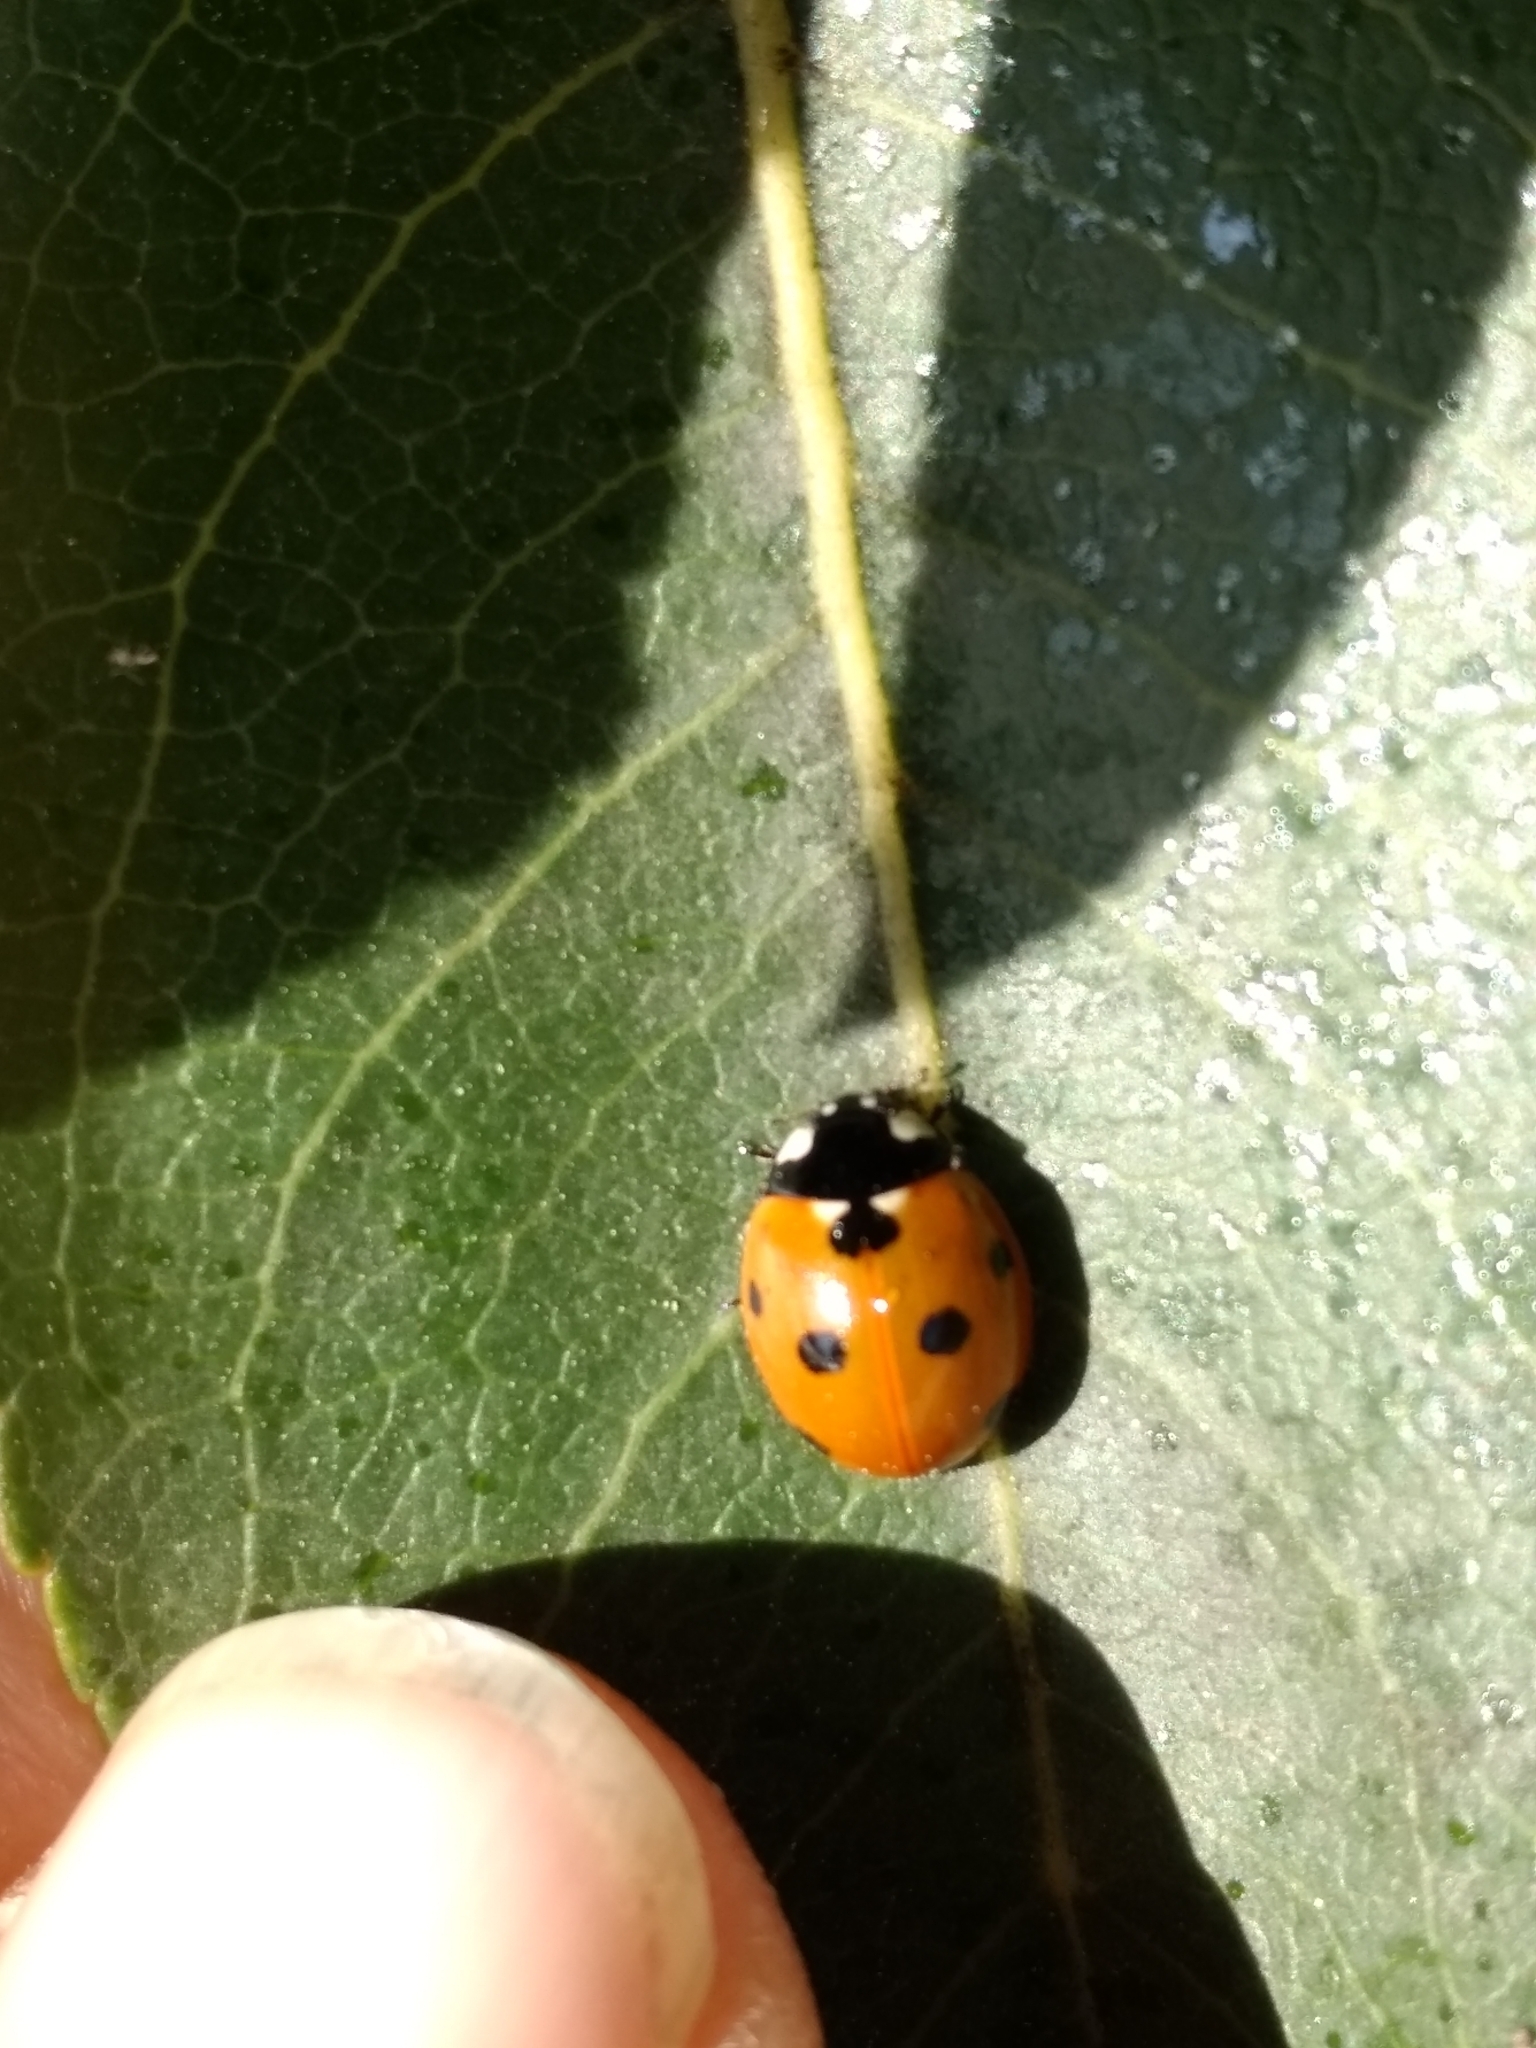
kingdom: Animalia
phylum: Arthropoda
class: Insecta
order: Coleoptera
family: Coccinellidae
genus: Coccinella
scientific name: Coccinella septempunctata
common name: Sevenspotted lady beetle
